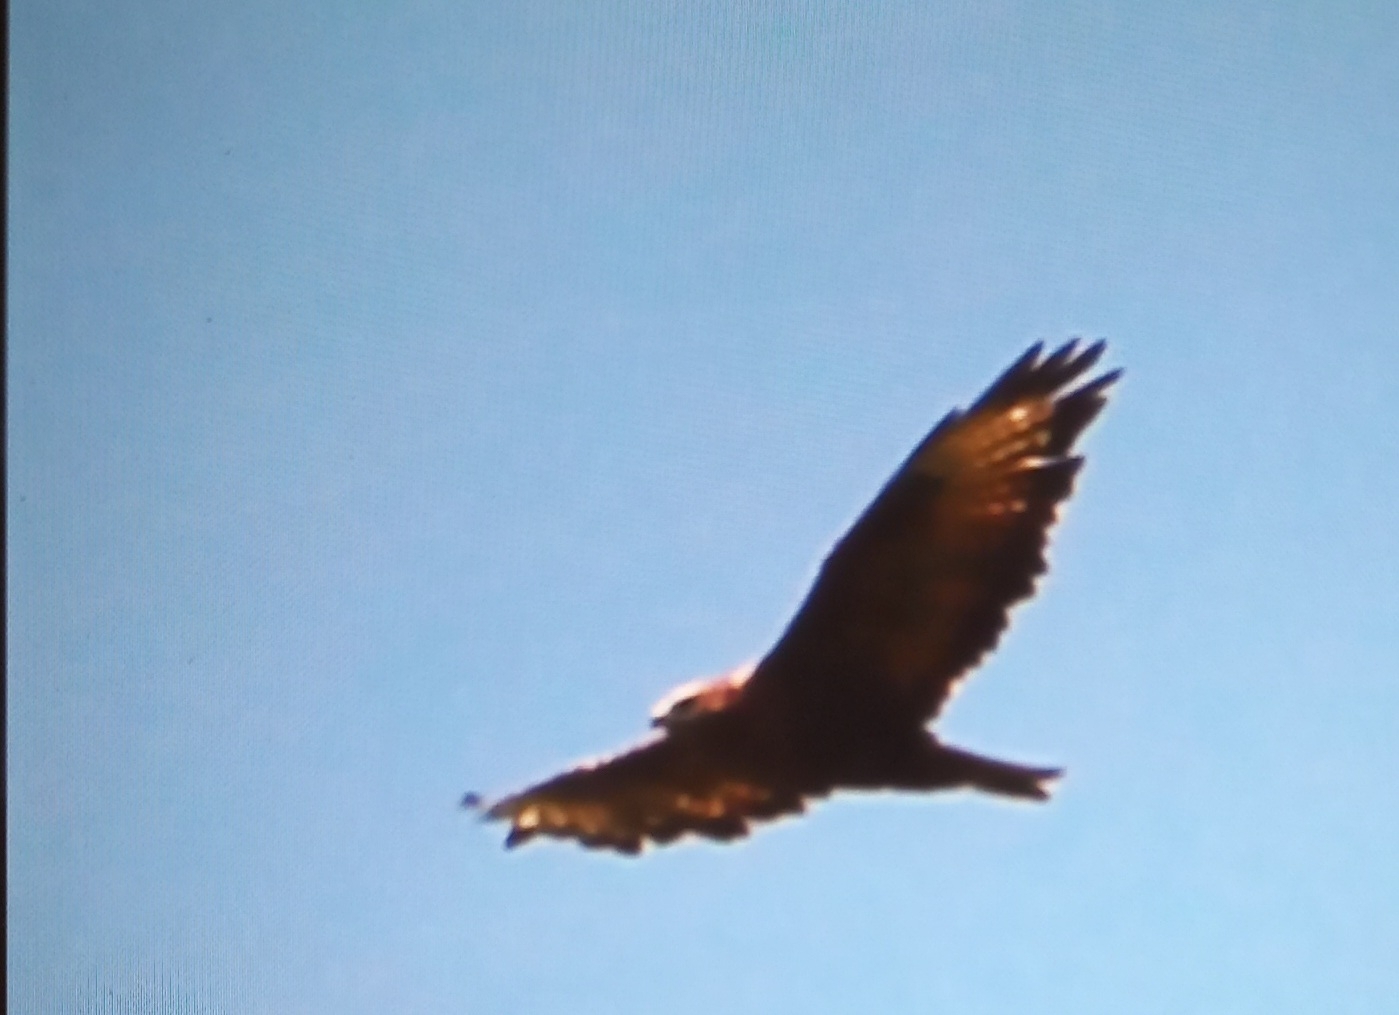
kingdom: Animalia
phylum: Chordata
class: Aves
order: Accipitriformes
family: Accipitridae
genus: Buteo
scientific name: Buteo rufinus
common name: Long-legged buzzard
